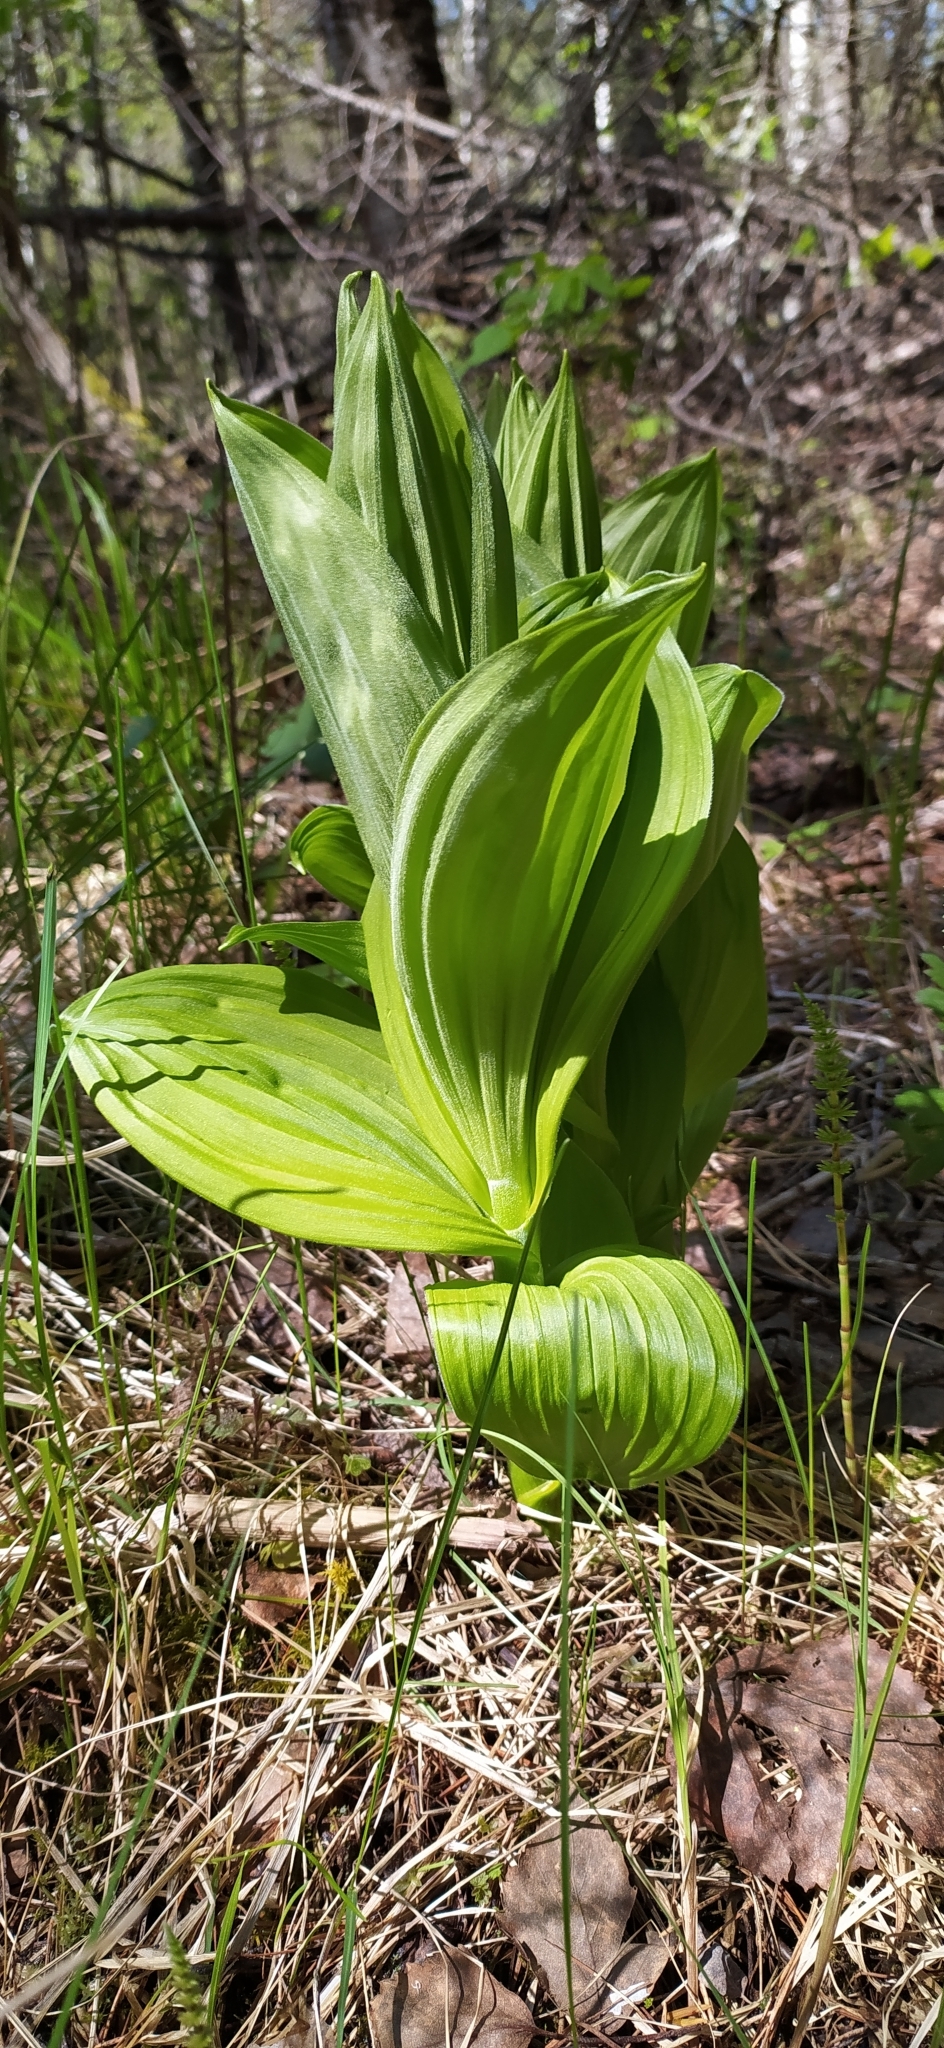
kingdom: Plantae
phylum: Tracheophyta
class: Liliopsida
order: Liliales
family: Melanthiaceae
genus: Veratrum
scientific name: Veratrum lobelianum
